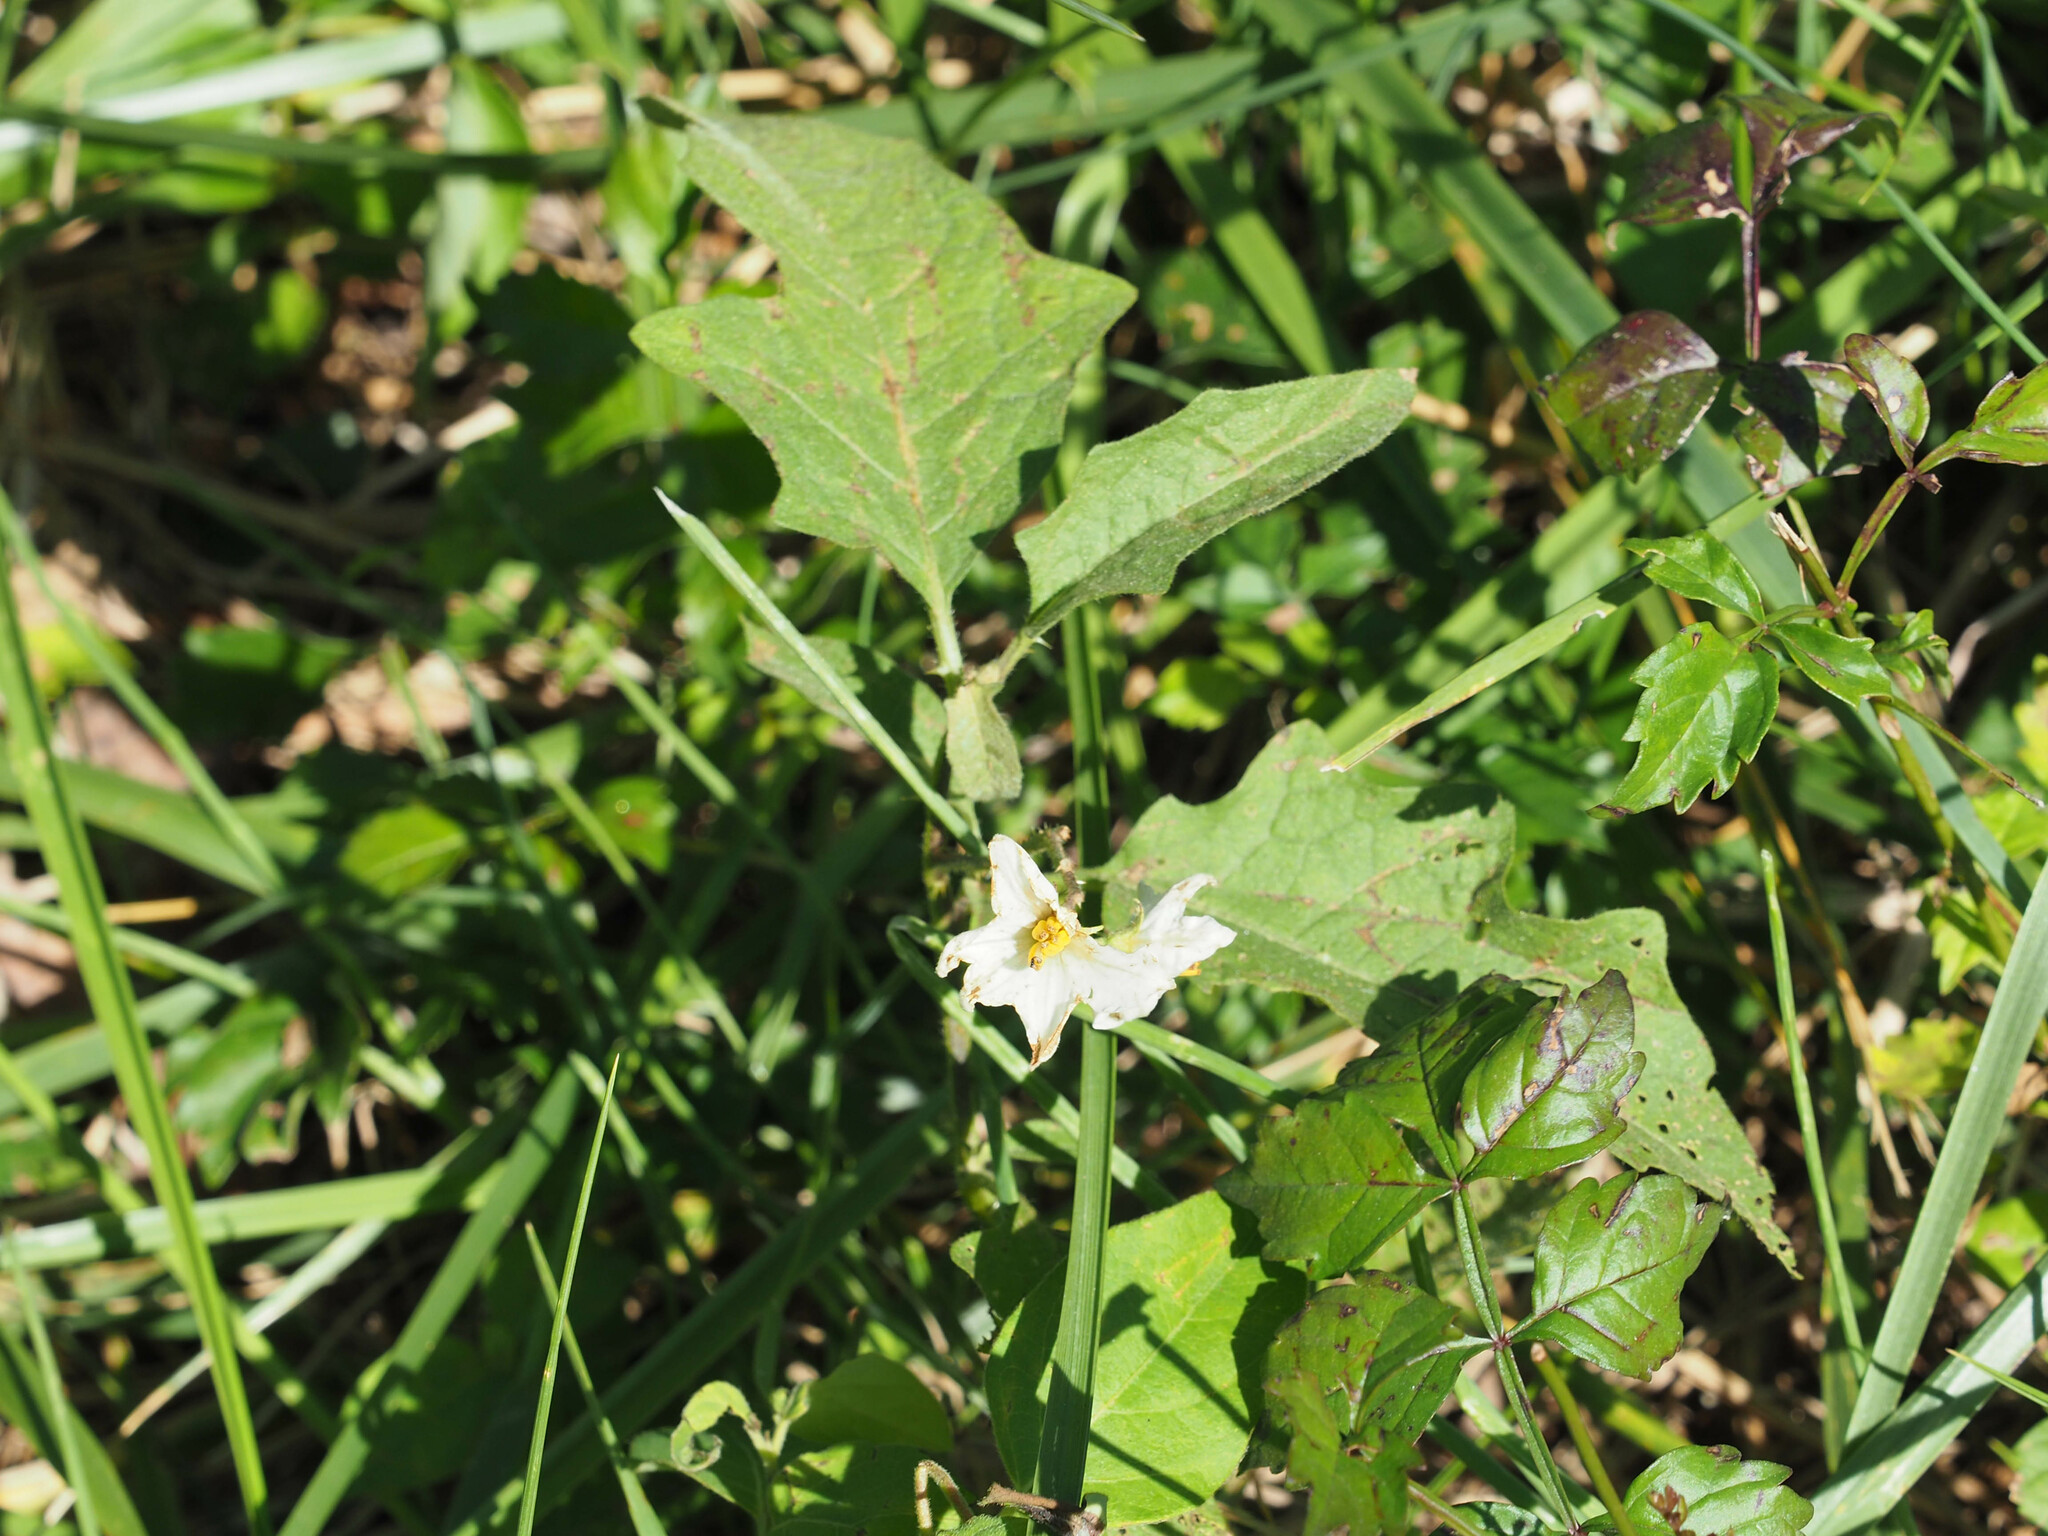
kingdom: Plantae
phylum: Tracheophyta
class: Magnoliopsida
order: Solanales
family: Solanaceae
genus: Solanum
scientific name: Solanum carolinense
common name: Horse-nettle
